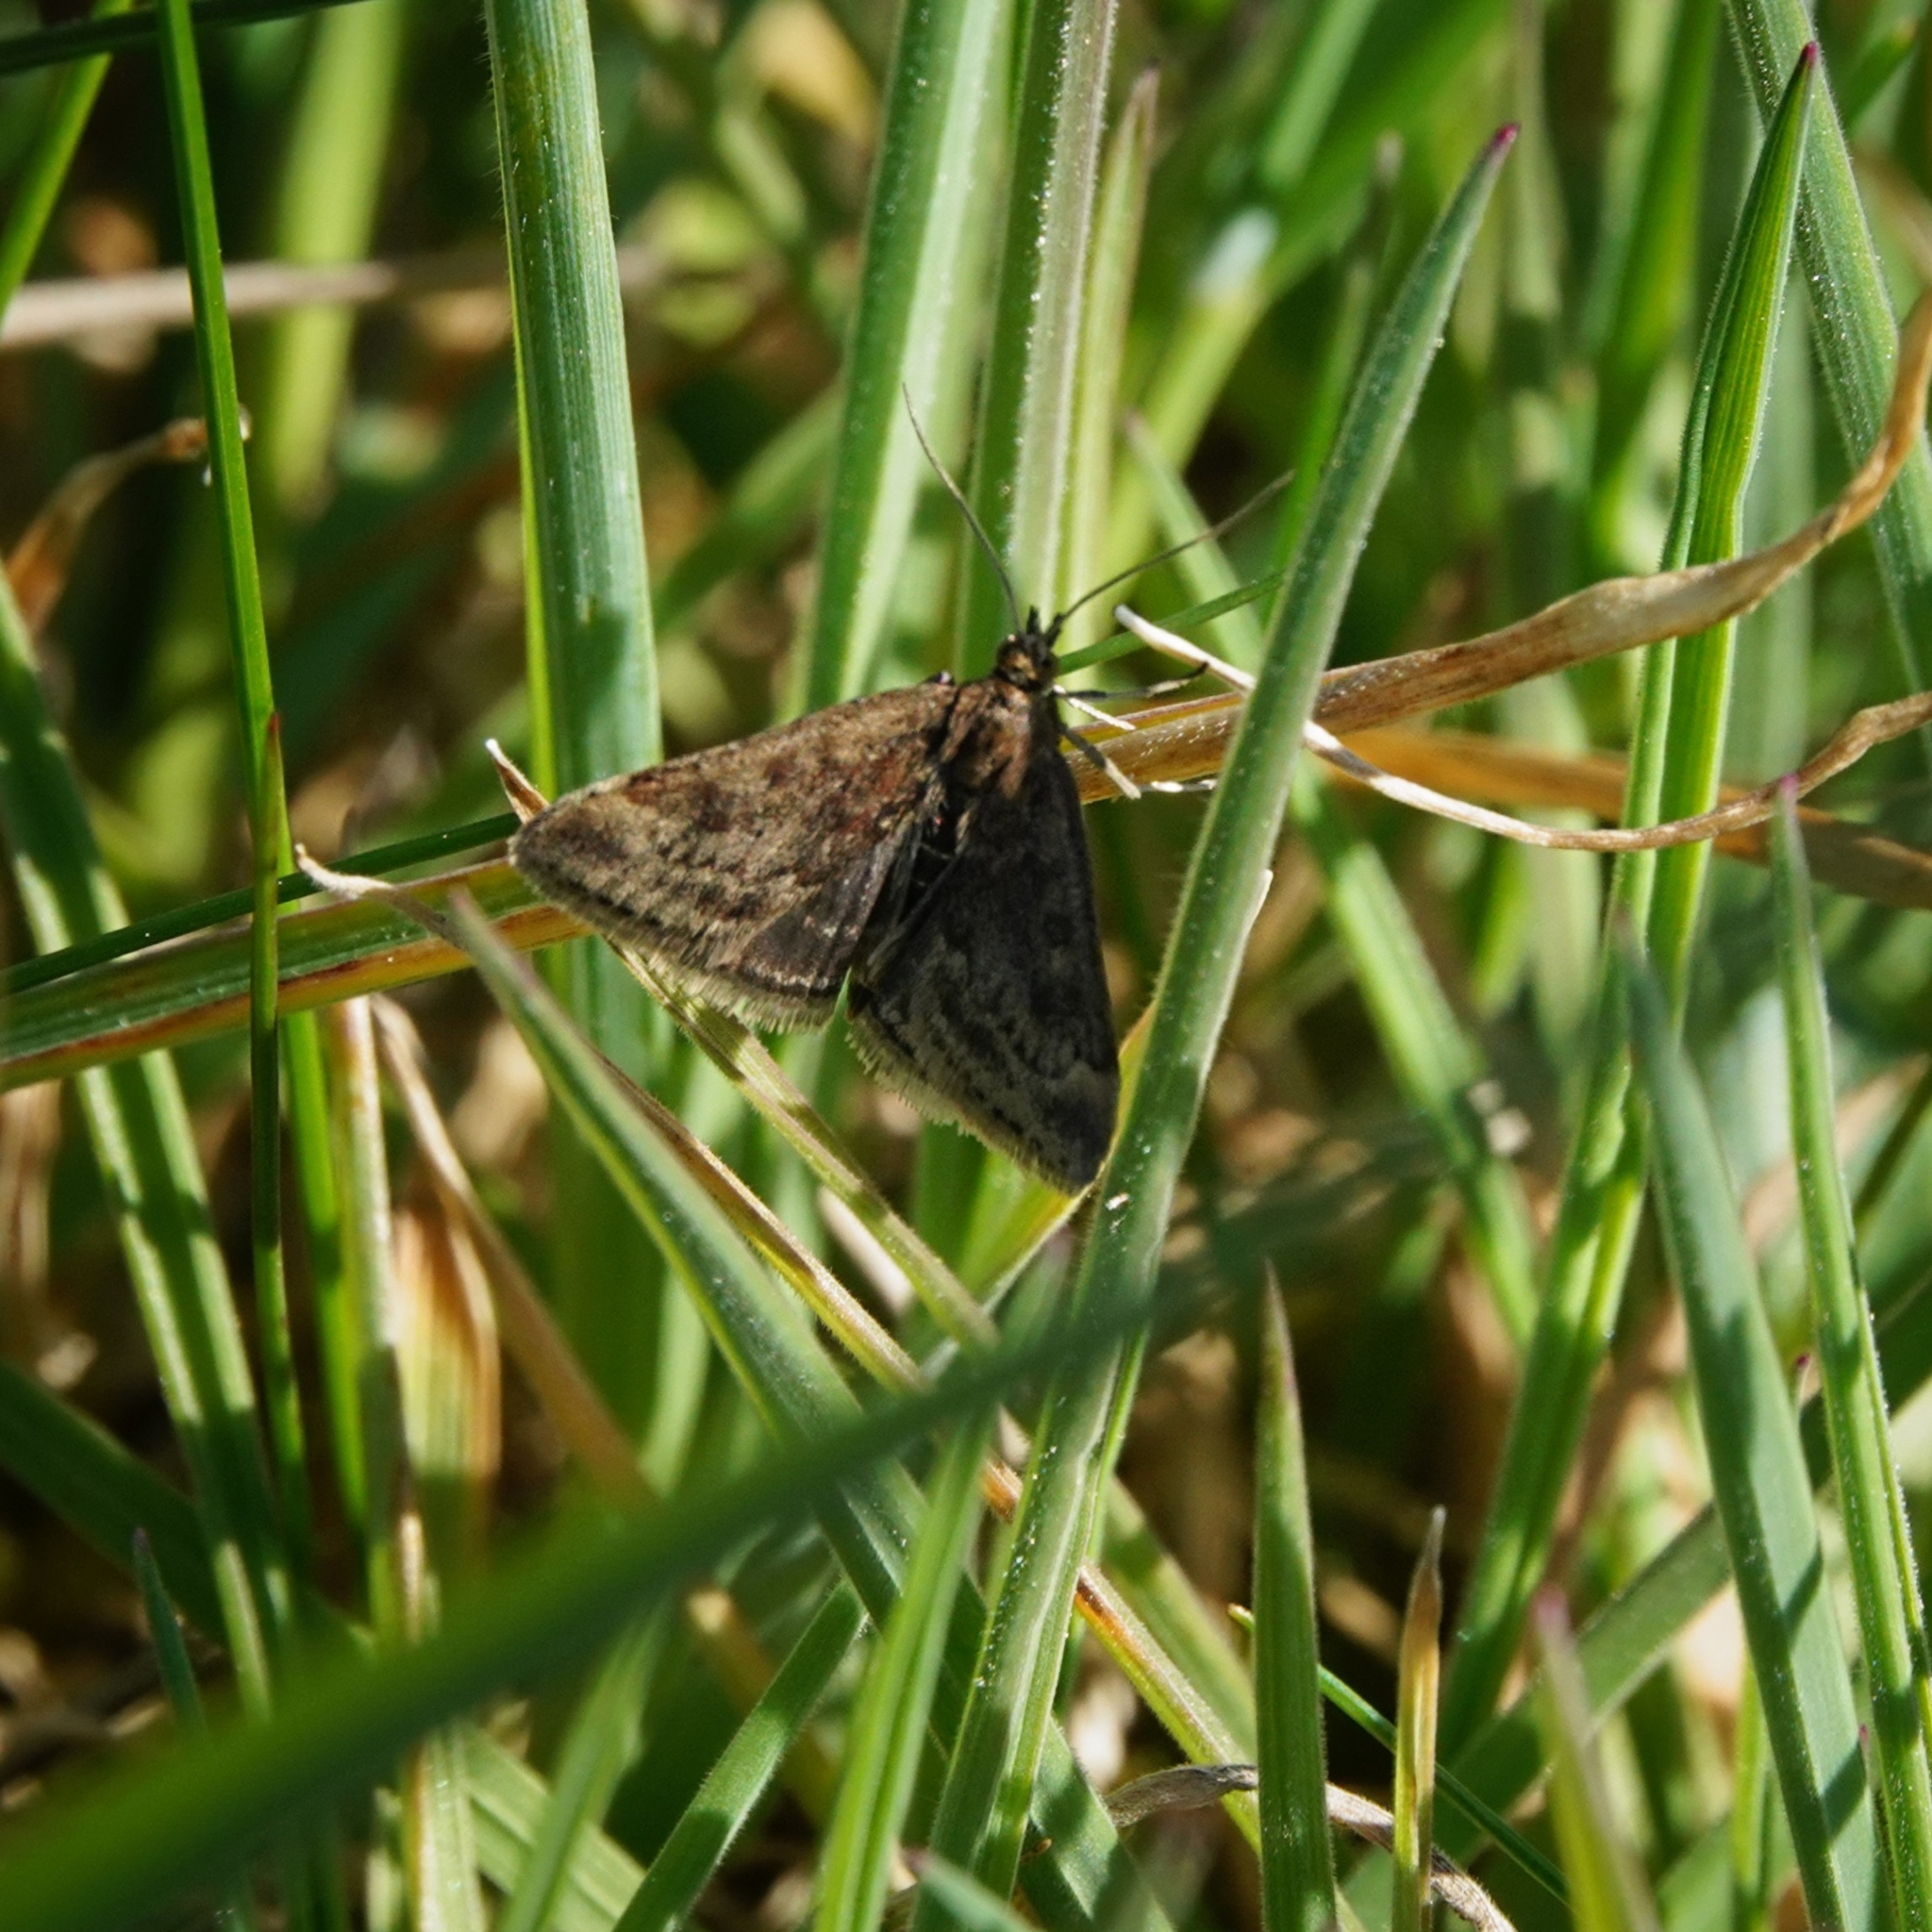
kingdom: Animalia
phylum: Arthropoda
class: Insecta
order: Lepidoptera
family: Crambidae
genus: Pyrausta
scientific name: Pyrausta despicata
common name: Straw-barred pearl
